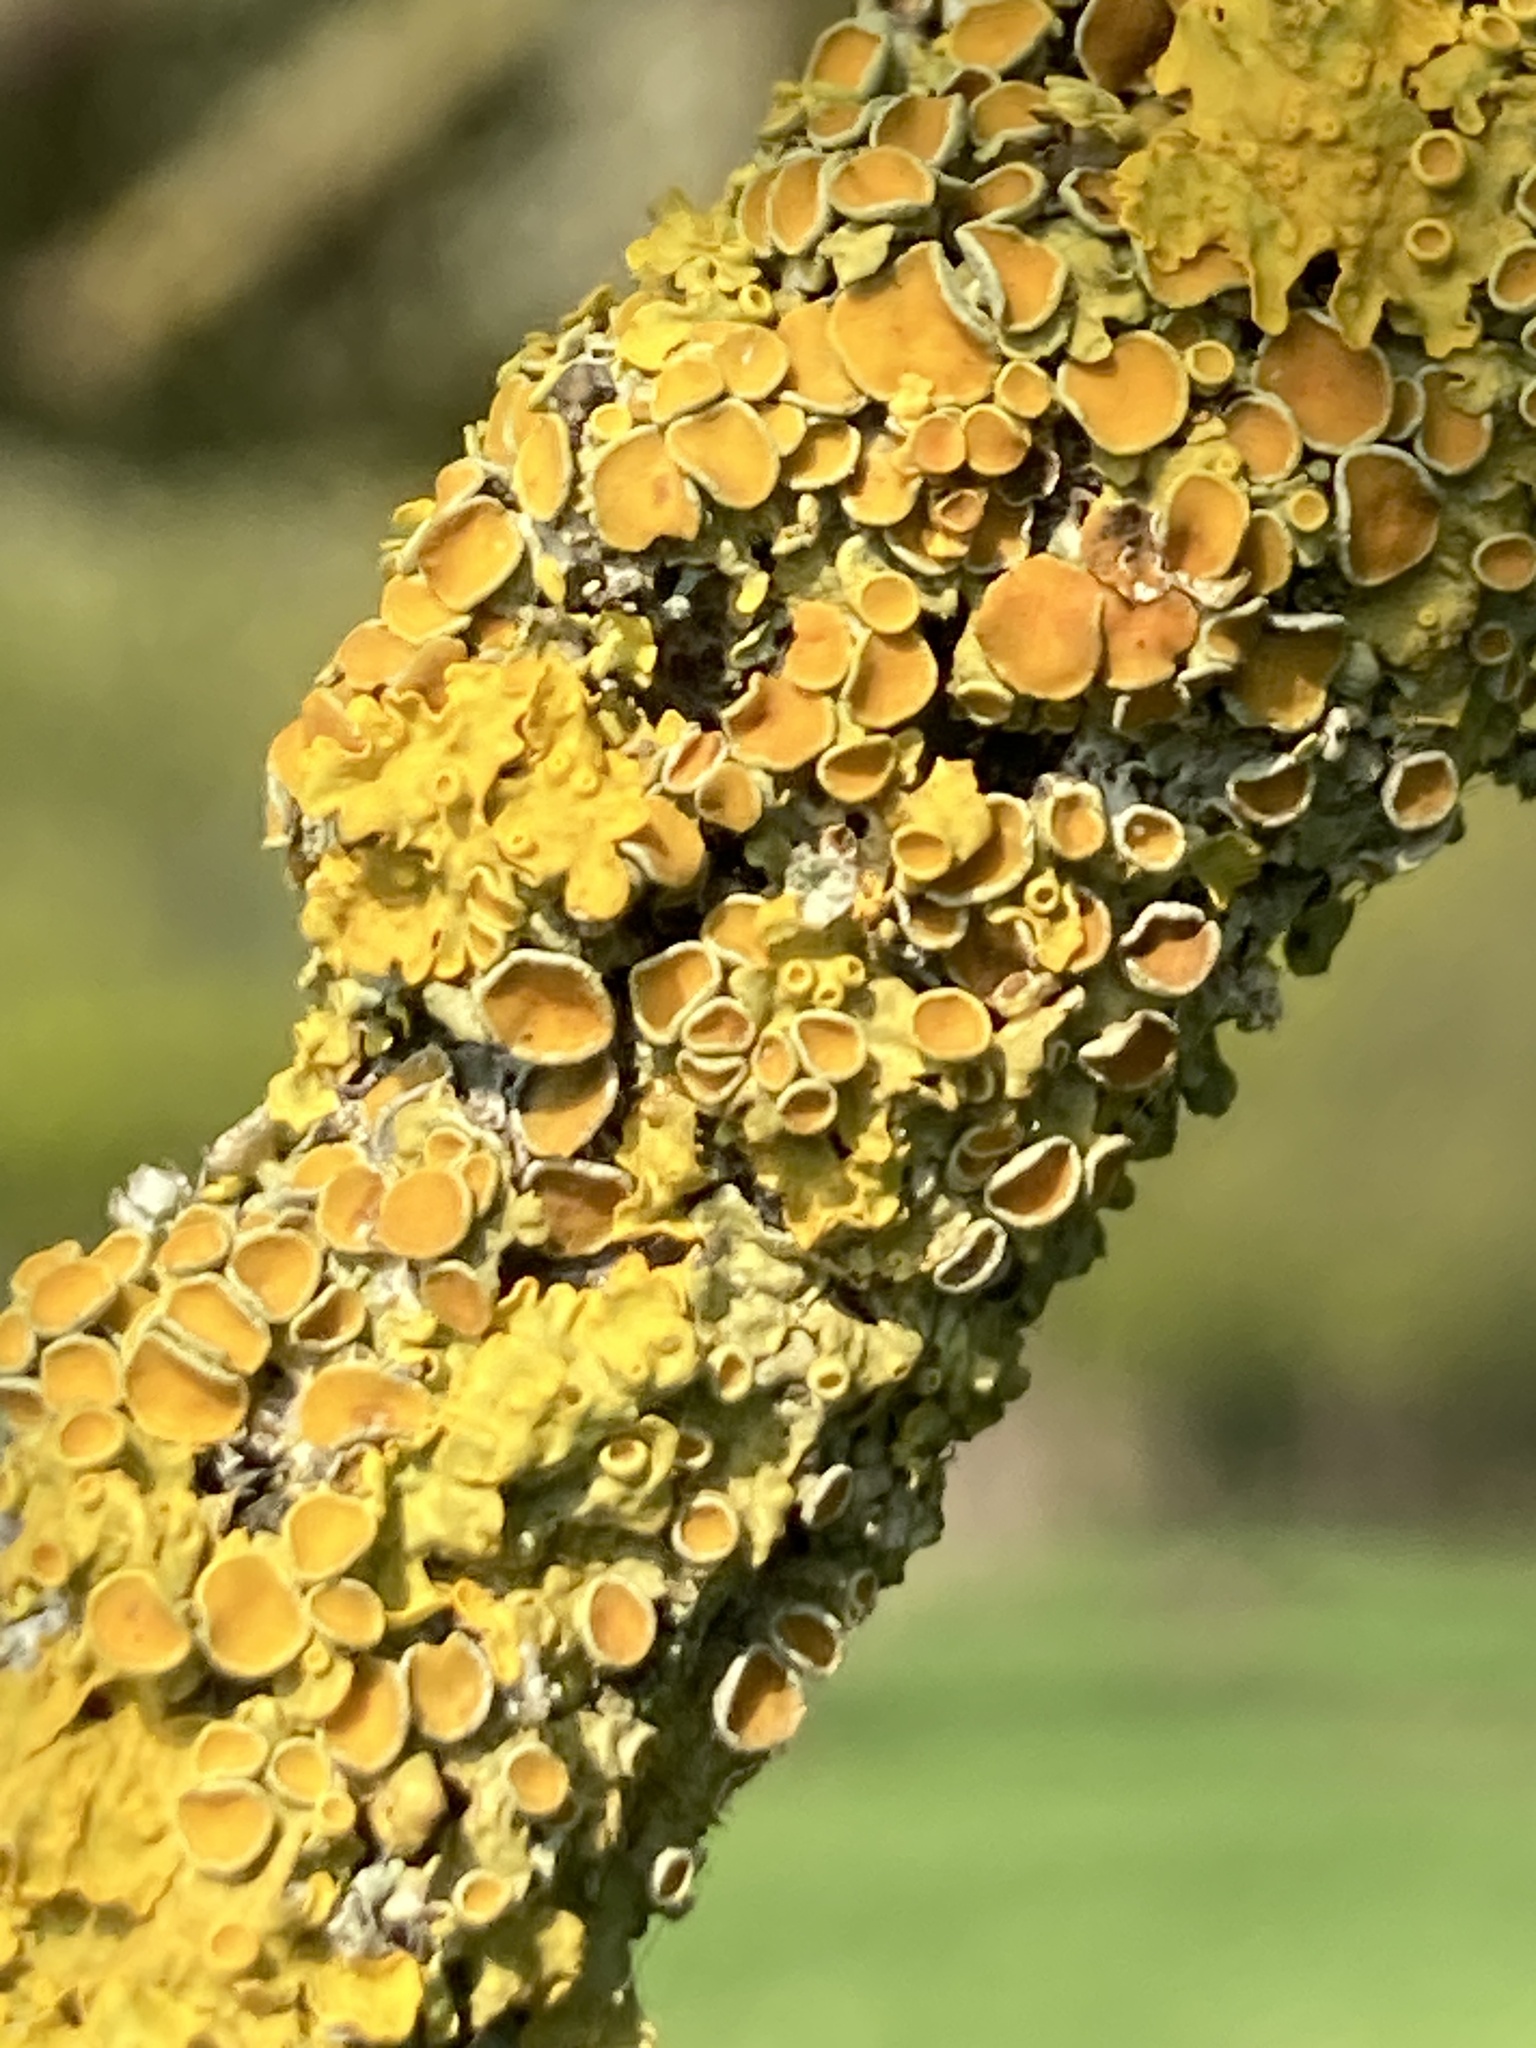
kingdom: Fungi
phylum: Ascomycota
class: Lecanoromycetes
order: Teloschistales
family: Teloschistaceae
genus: Xanthoria
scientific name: Xanthoria parietina
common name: Common orange lichen
